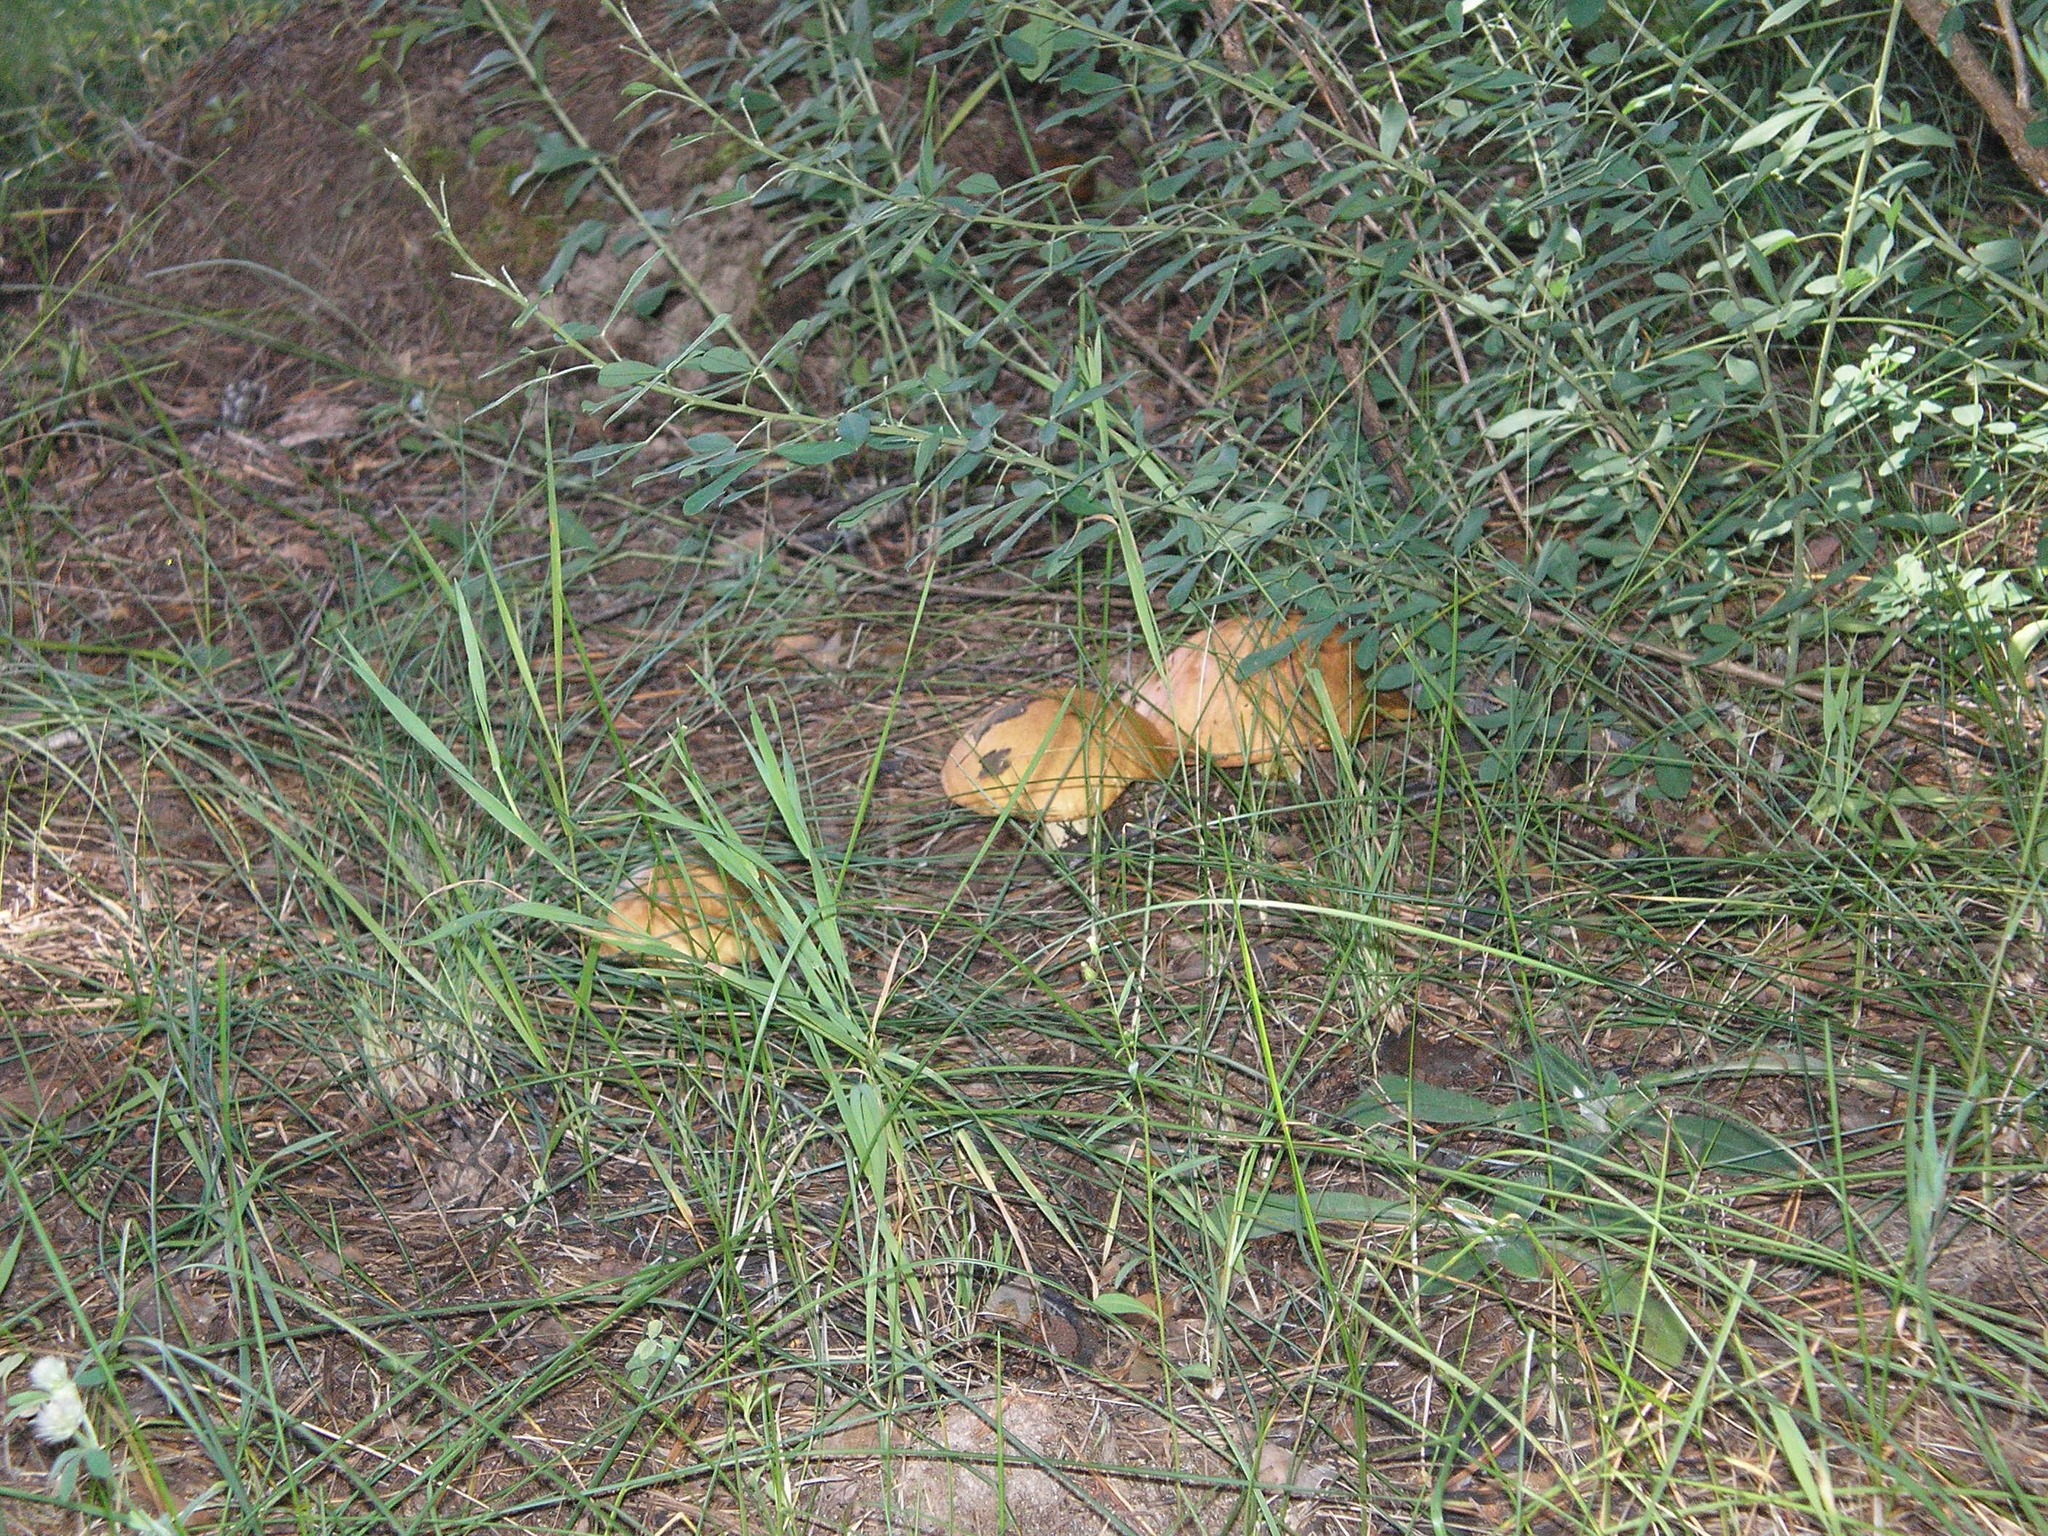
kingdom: Fungi
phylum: Basidiomycota
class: Agaricomycetes
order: Boletales
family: Suillaceae
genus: Suillus
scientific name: Suillus granulatus
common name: Weeping bolete
